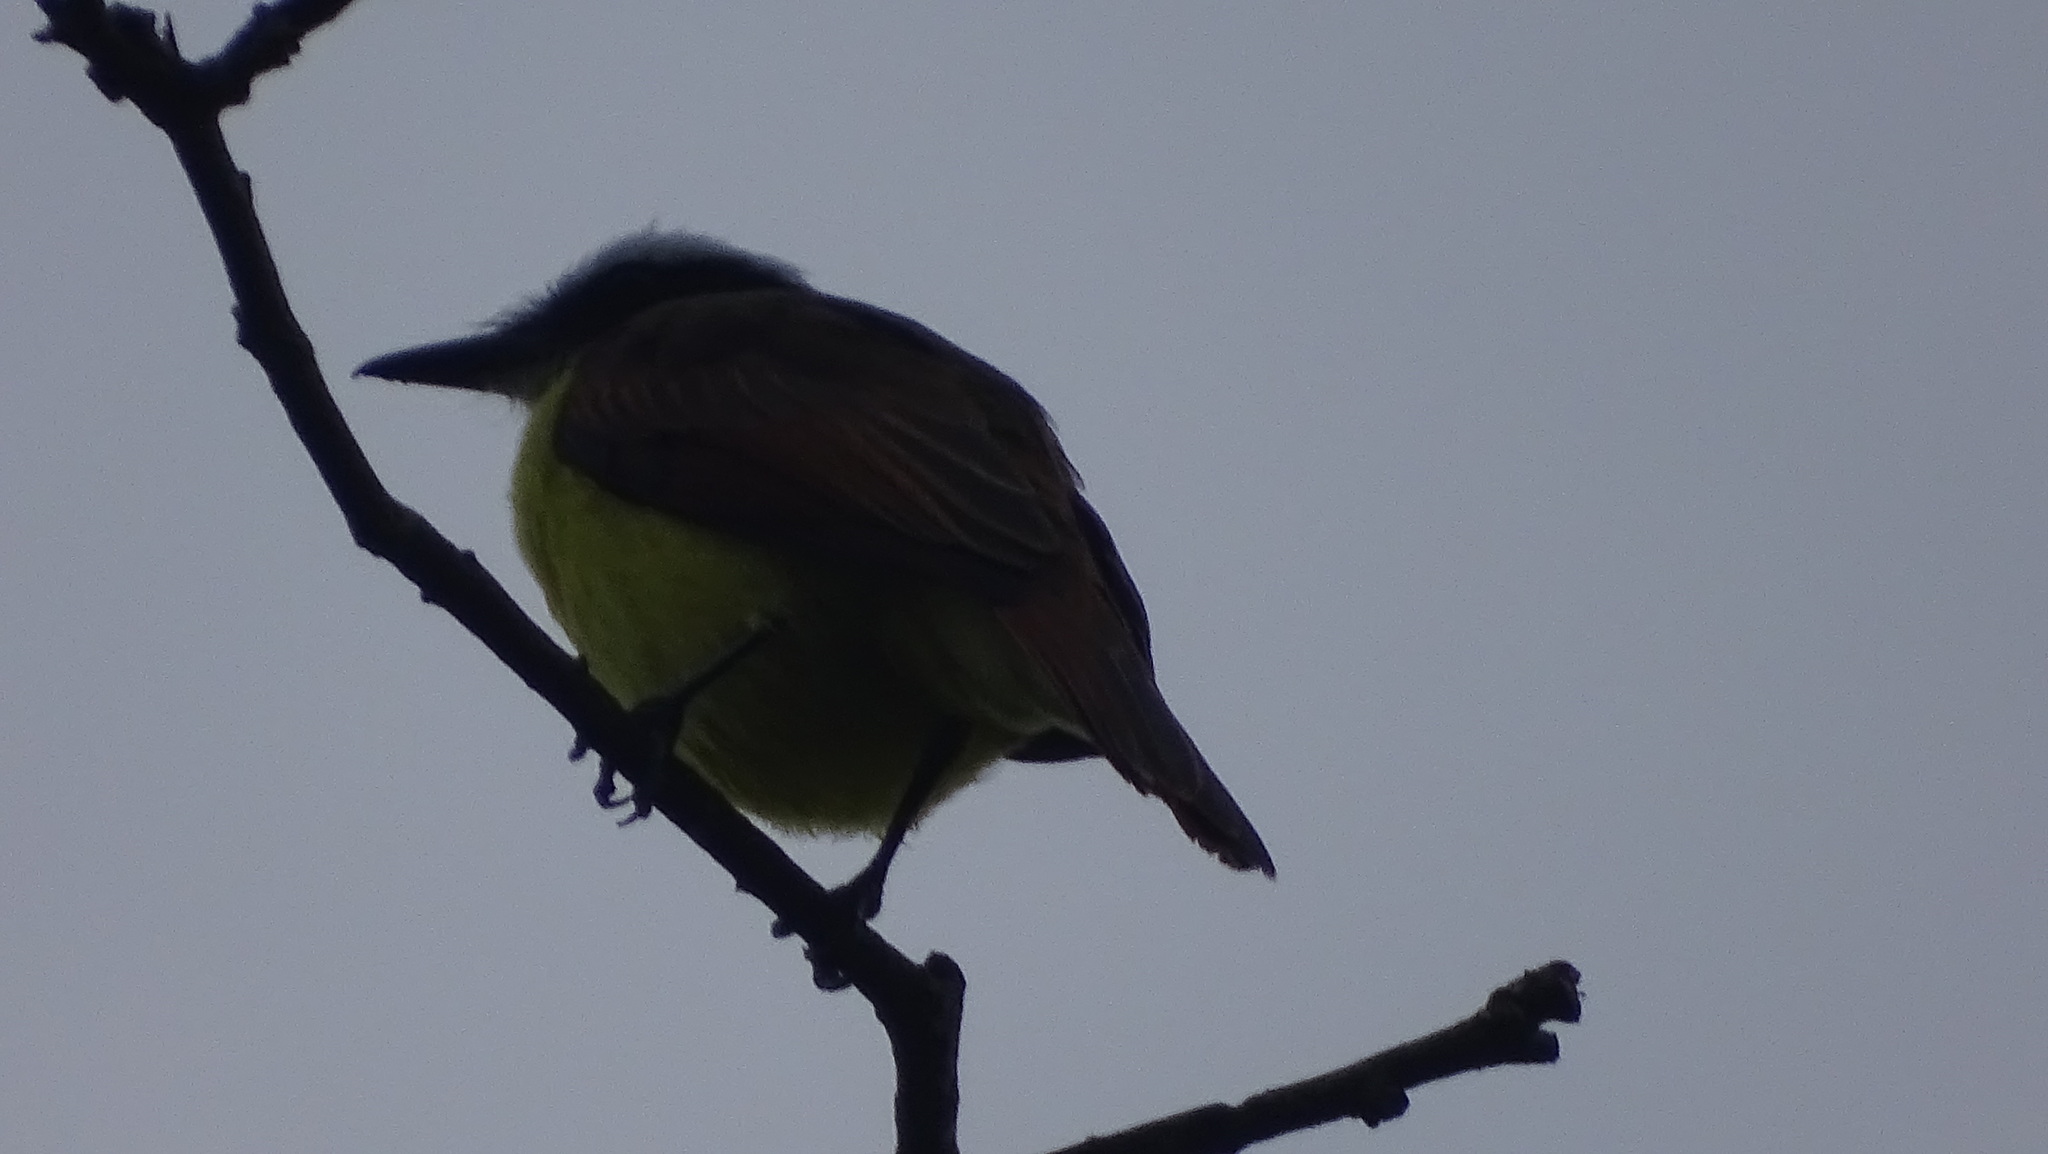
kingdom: Animalia
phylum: Chordata
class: Aves
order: Passeriformes
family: Tyrannidae
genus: Pitangus
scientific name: Pitangus sulphuratus
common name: Great kiskadee
